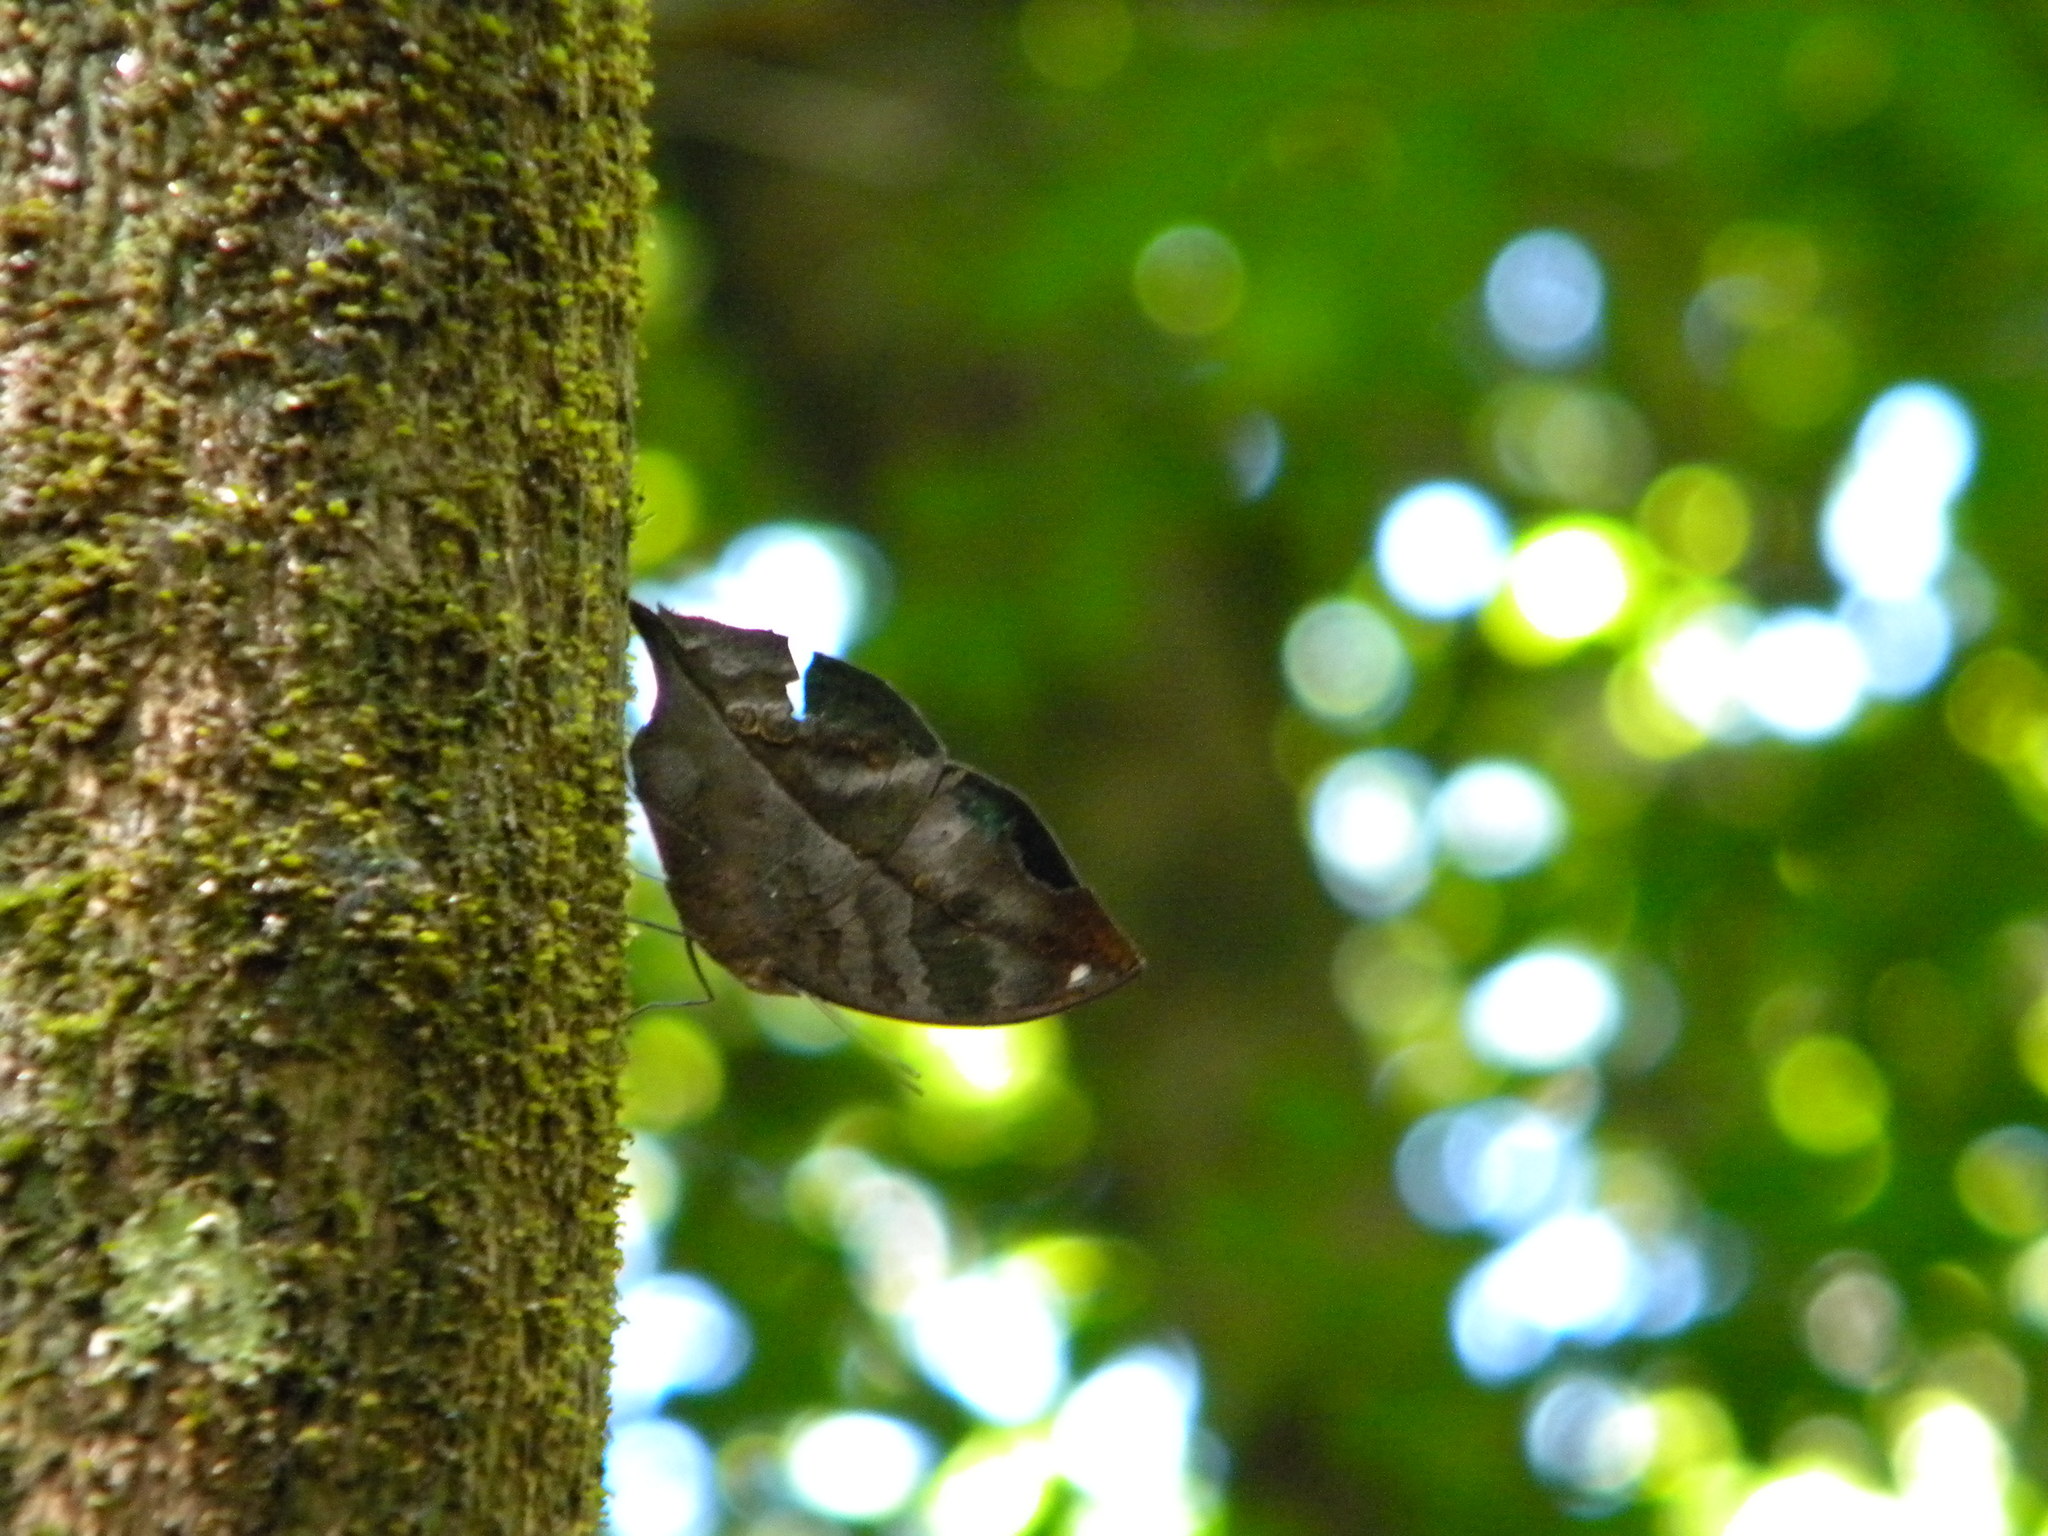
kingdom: Animalia
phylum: Arthropoda
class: Insecta
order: Lepidoptera
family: Nymphalidae
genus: Kallima
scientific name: Kallima horsfieldii
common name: Sahyadri blue oakleaf
